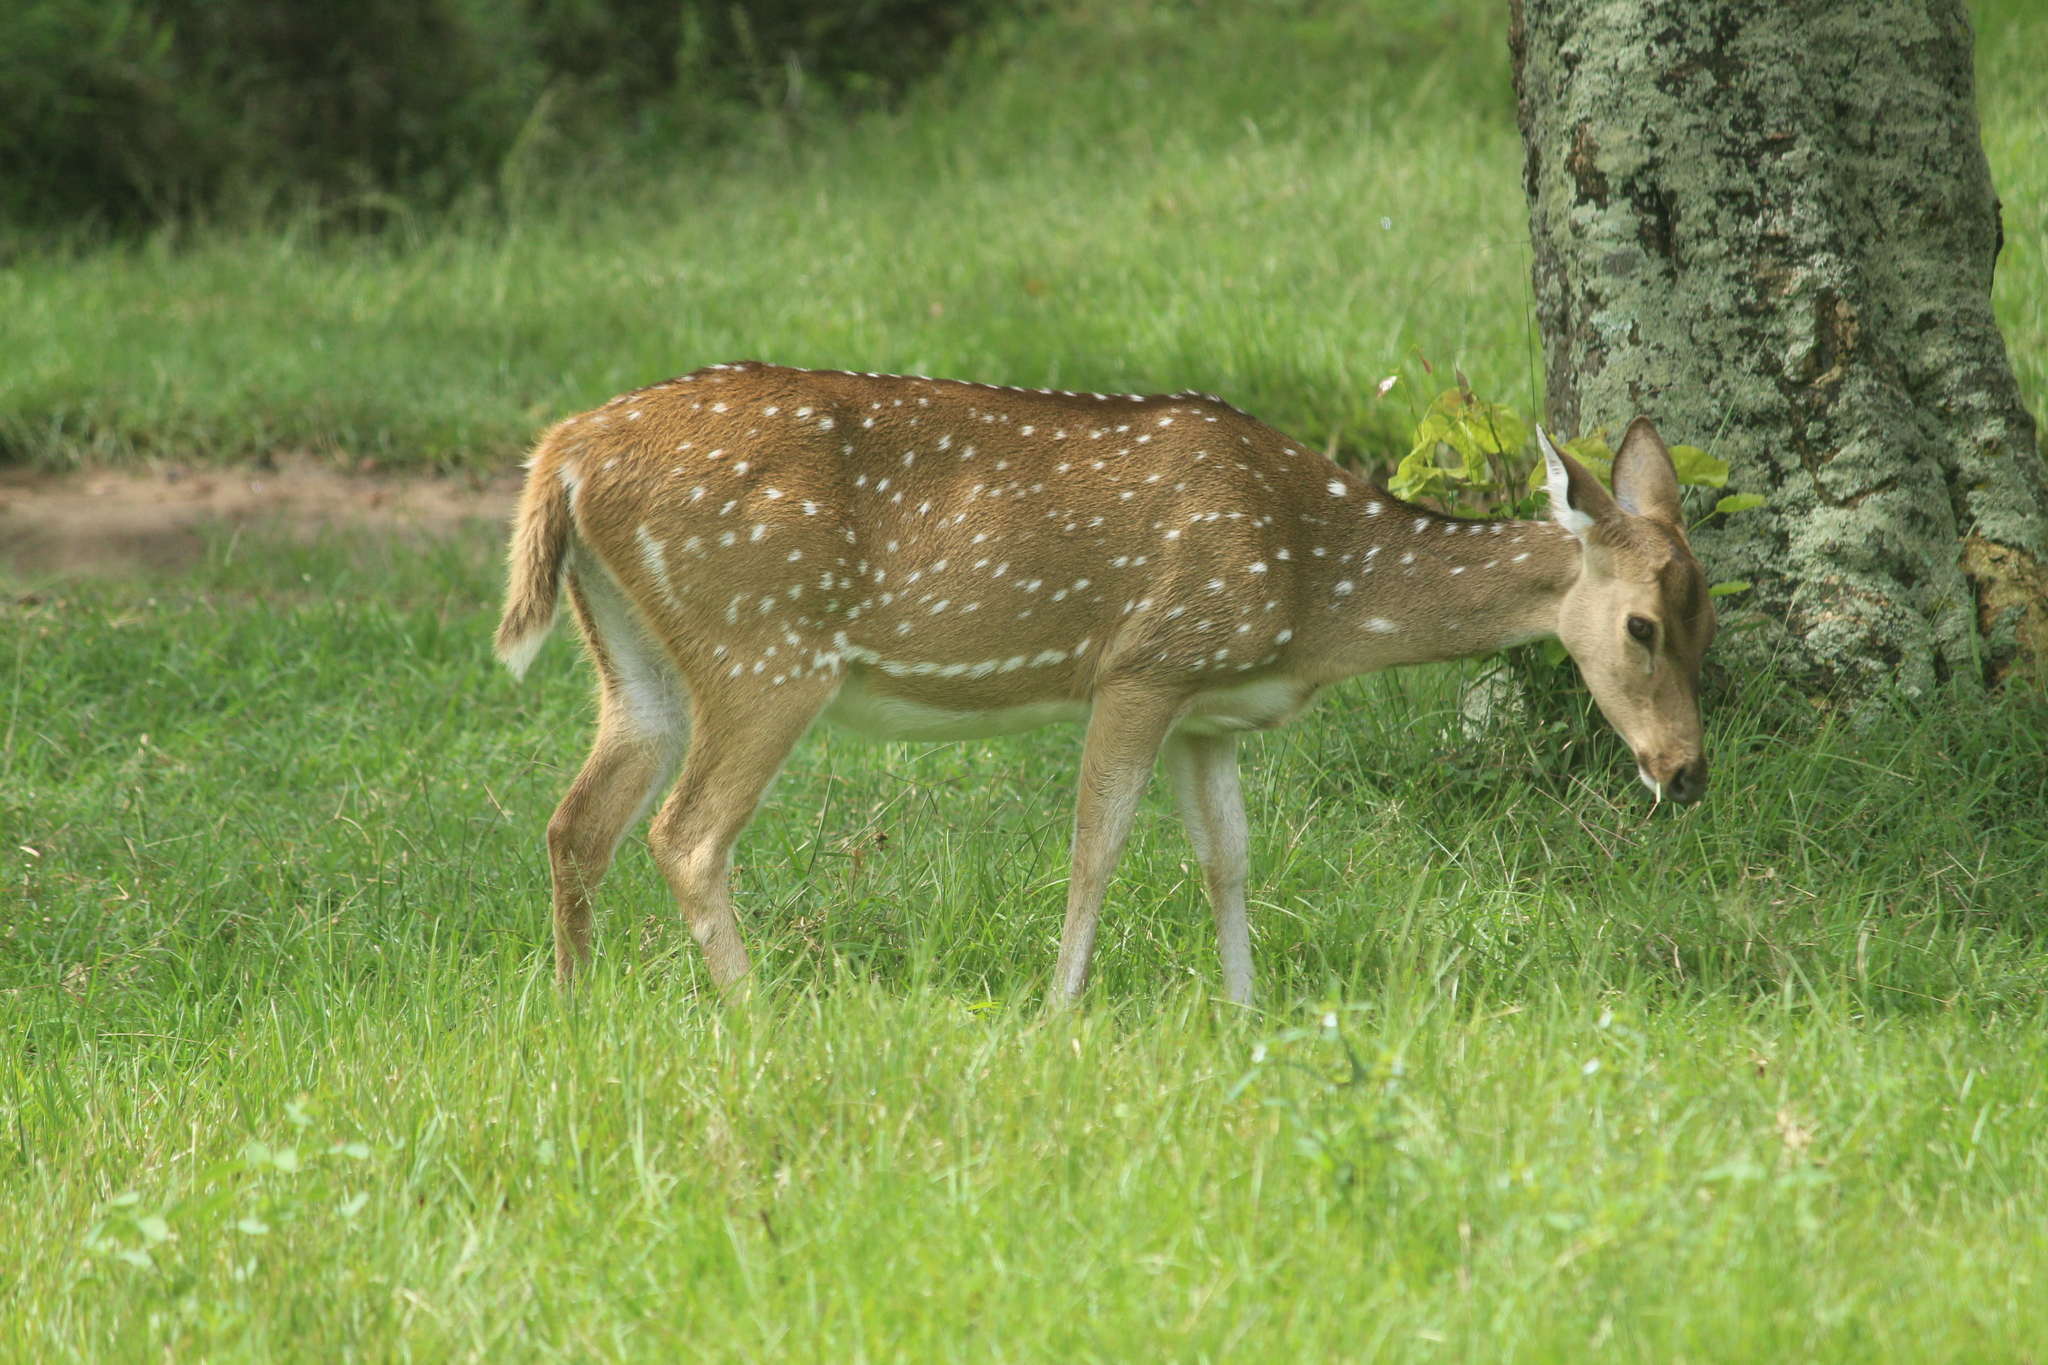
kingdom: Animalia
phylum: Chordata
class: Mammalia
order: Artiodactyla
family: Cervidae
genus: Axis
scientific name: Axis axis
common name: Chital
